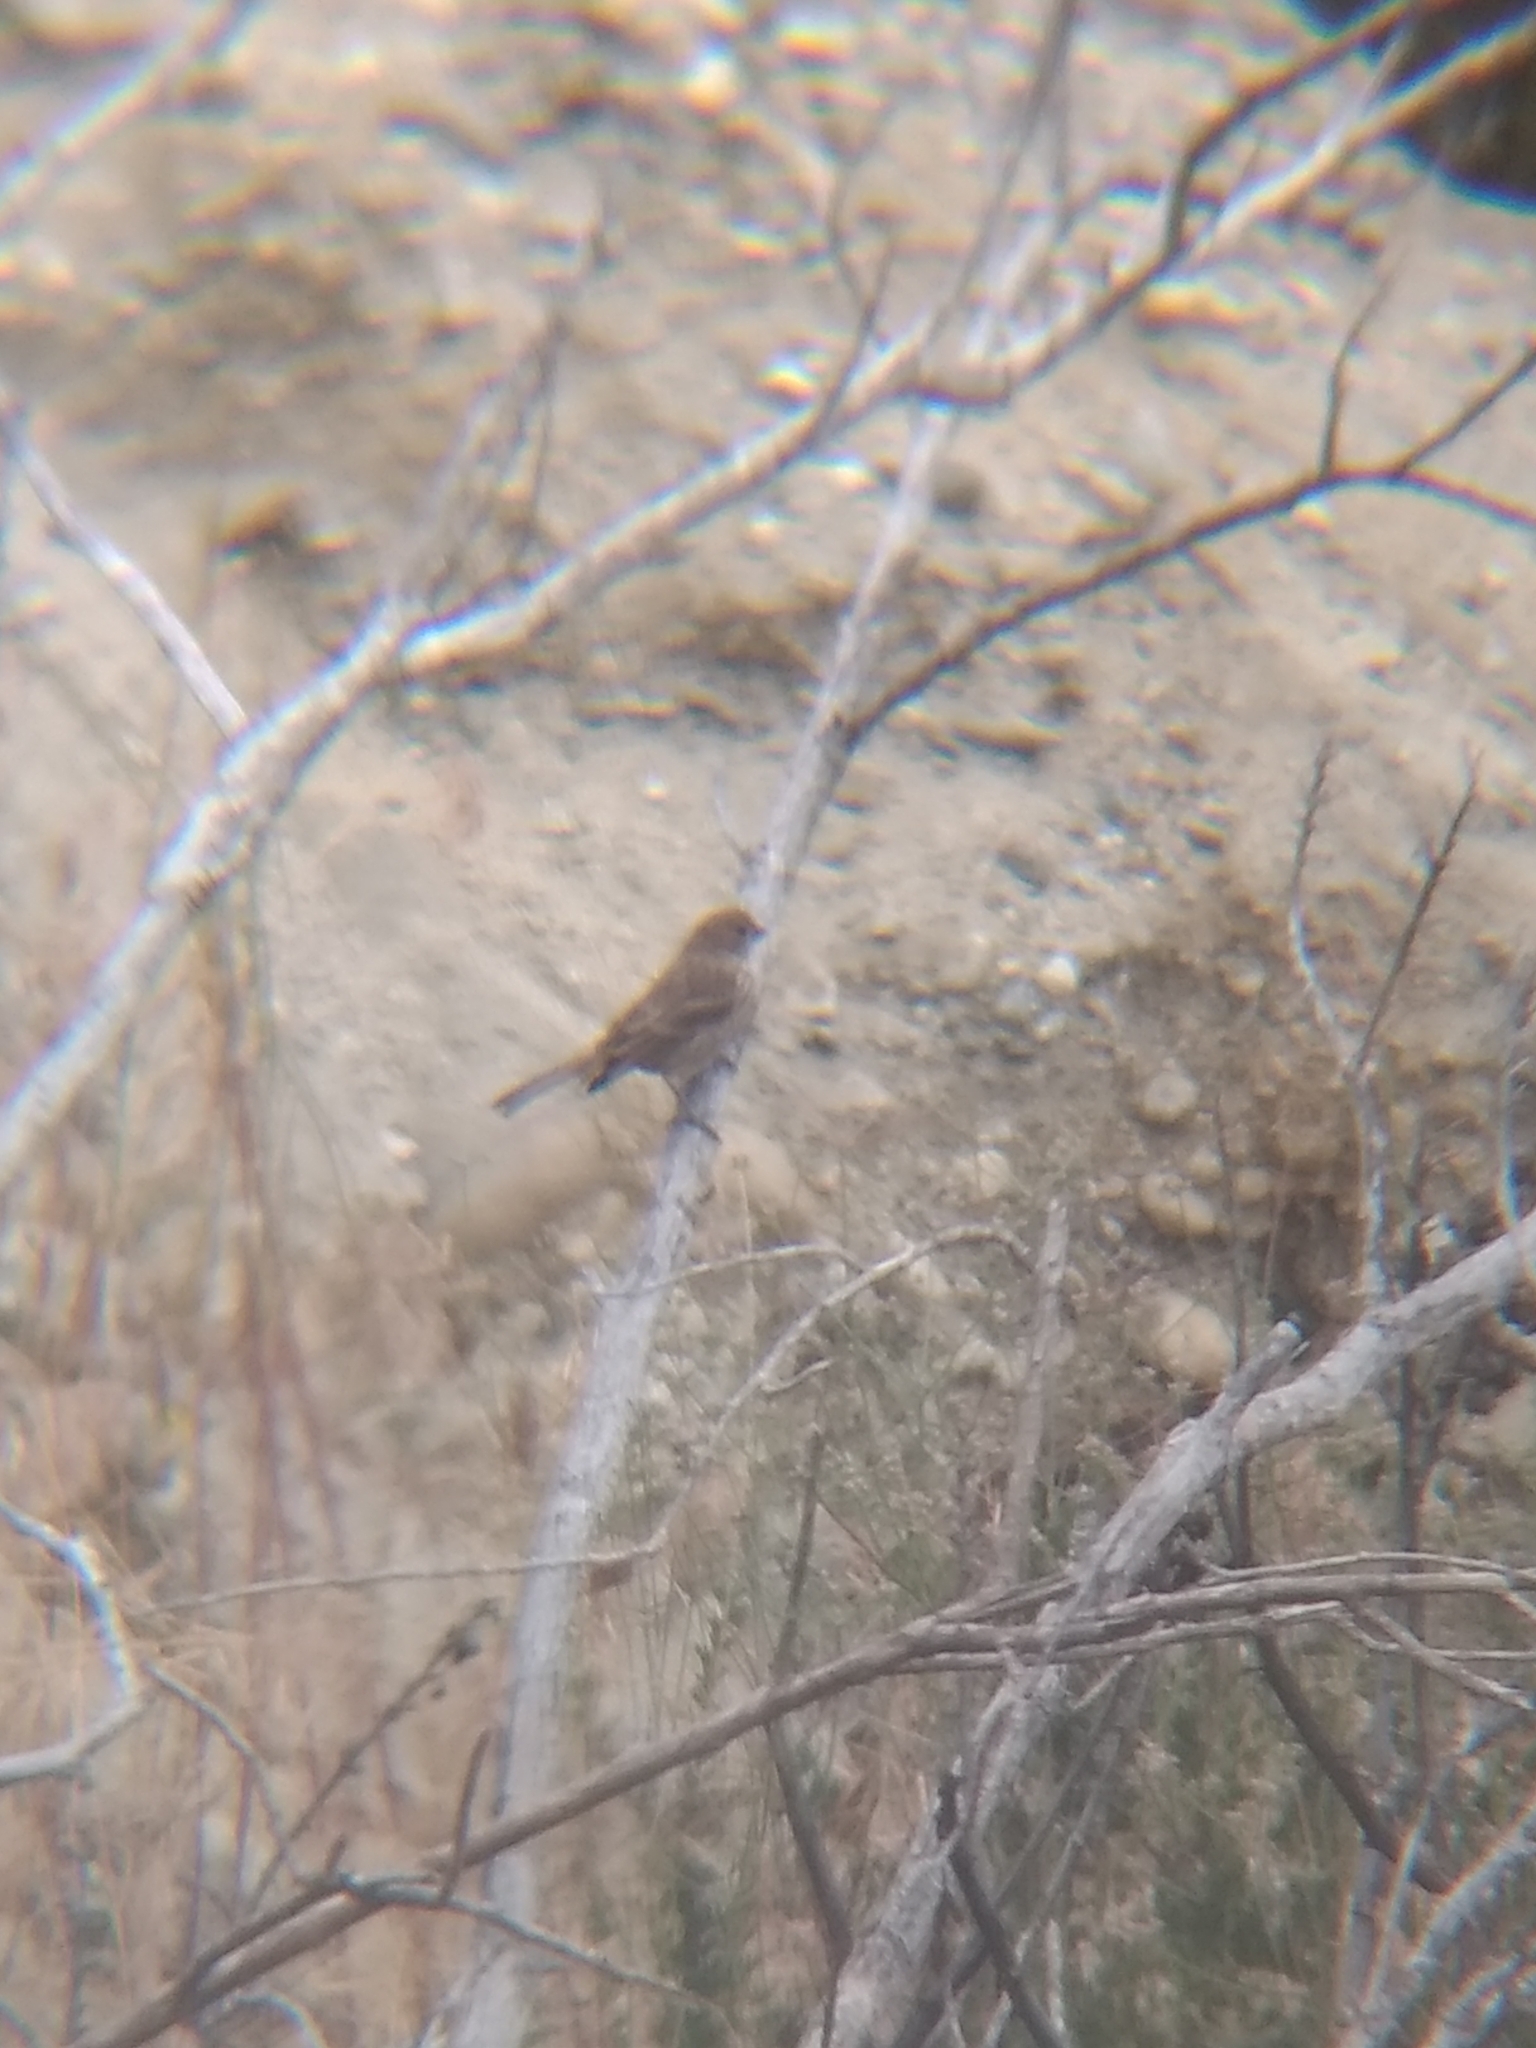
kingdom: Animalia
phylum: Chordata
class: Aves
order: Passeriformes
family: Fringillidae
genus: Haemorhous
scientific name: Haemorhous mexicanus
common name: House finch
